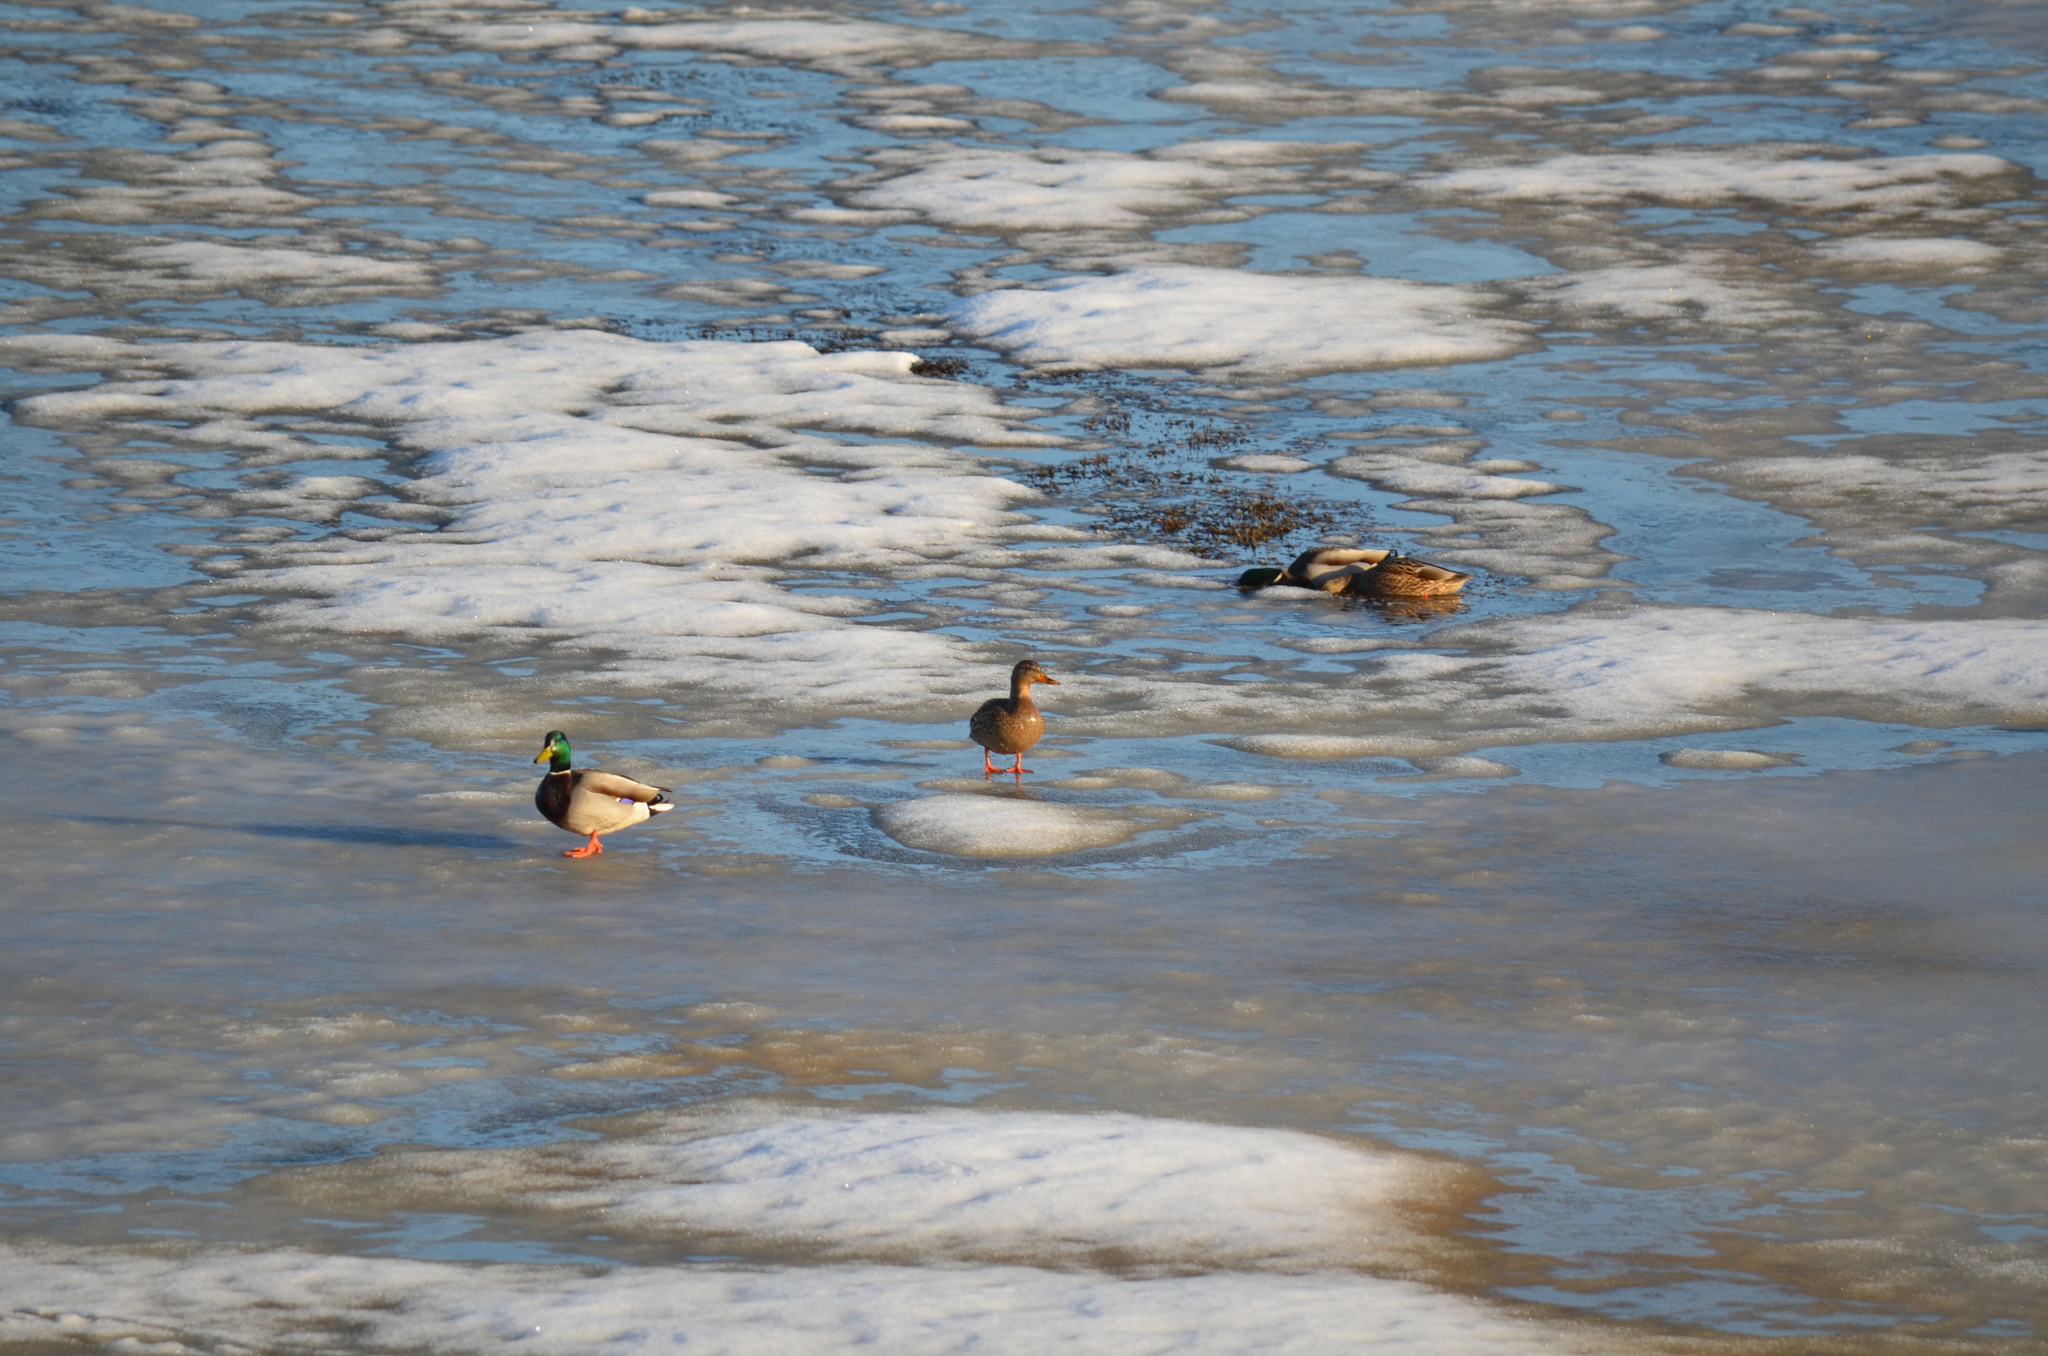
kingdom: Animalia
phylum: Chordata
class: Aves
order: Anseriformes
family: Anatidae
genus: Anas
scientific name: Anas platyrhynchos
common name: Mallard
